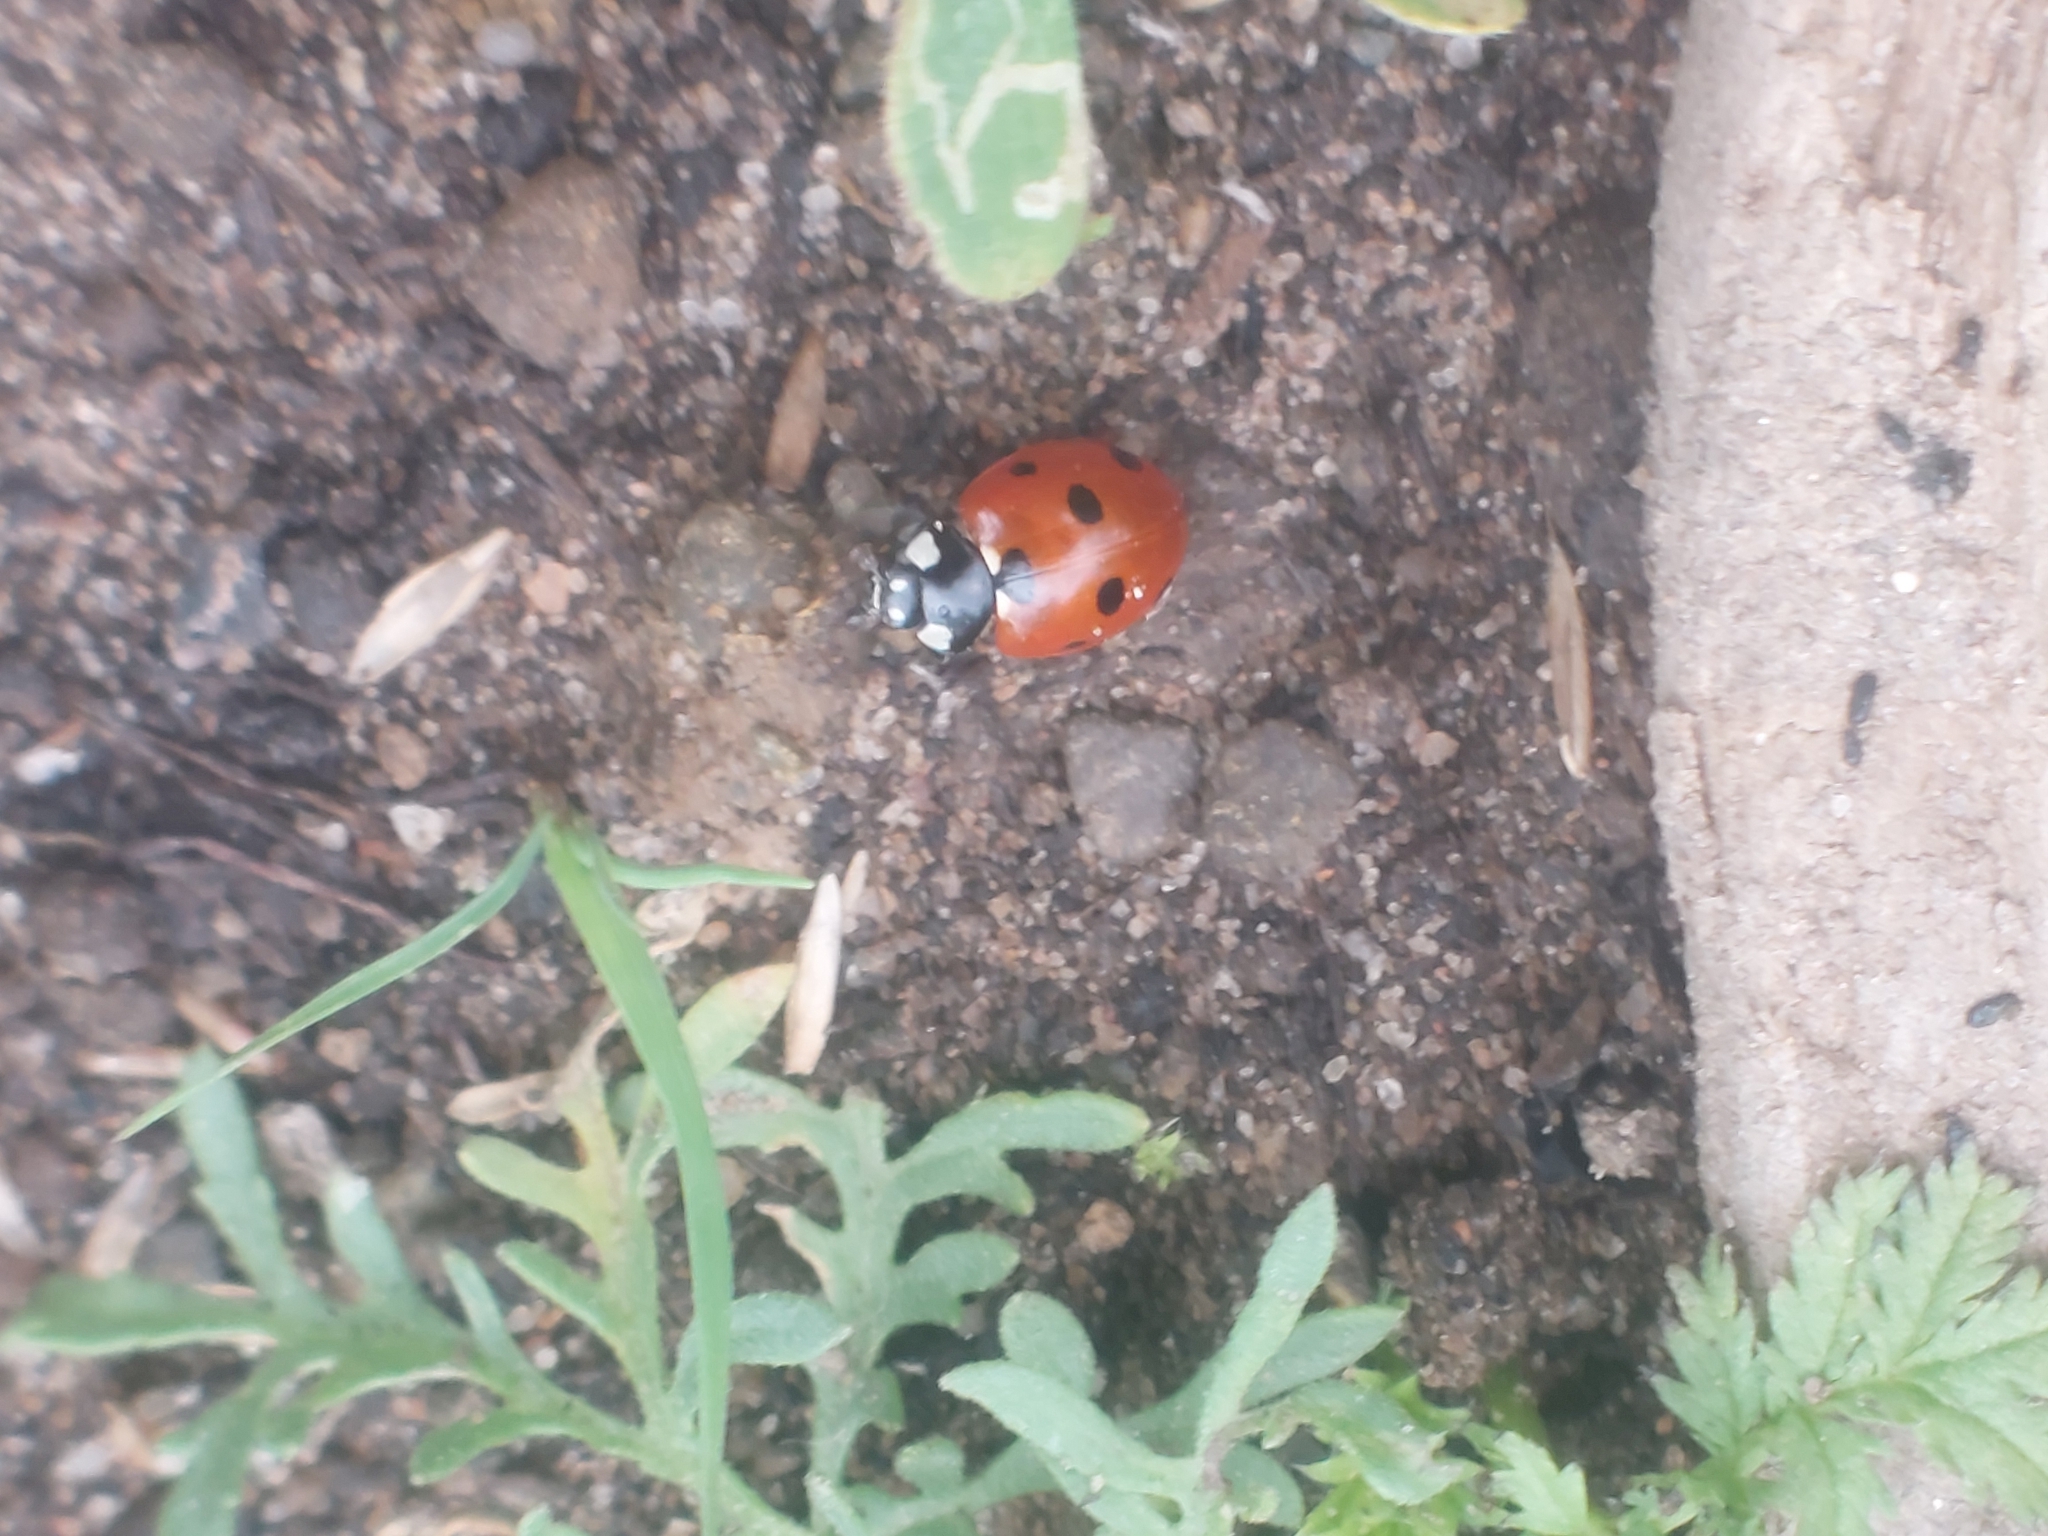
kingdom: Animalia
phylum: Arthropoda
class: Insecta
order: Coleoptera
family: Coccinellidae
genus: Coccinella
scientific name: Coccinella septempunctata
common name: Sevenspotted lady beetle
